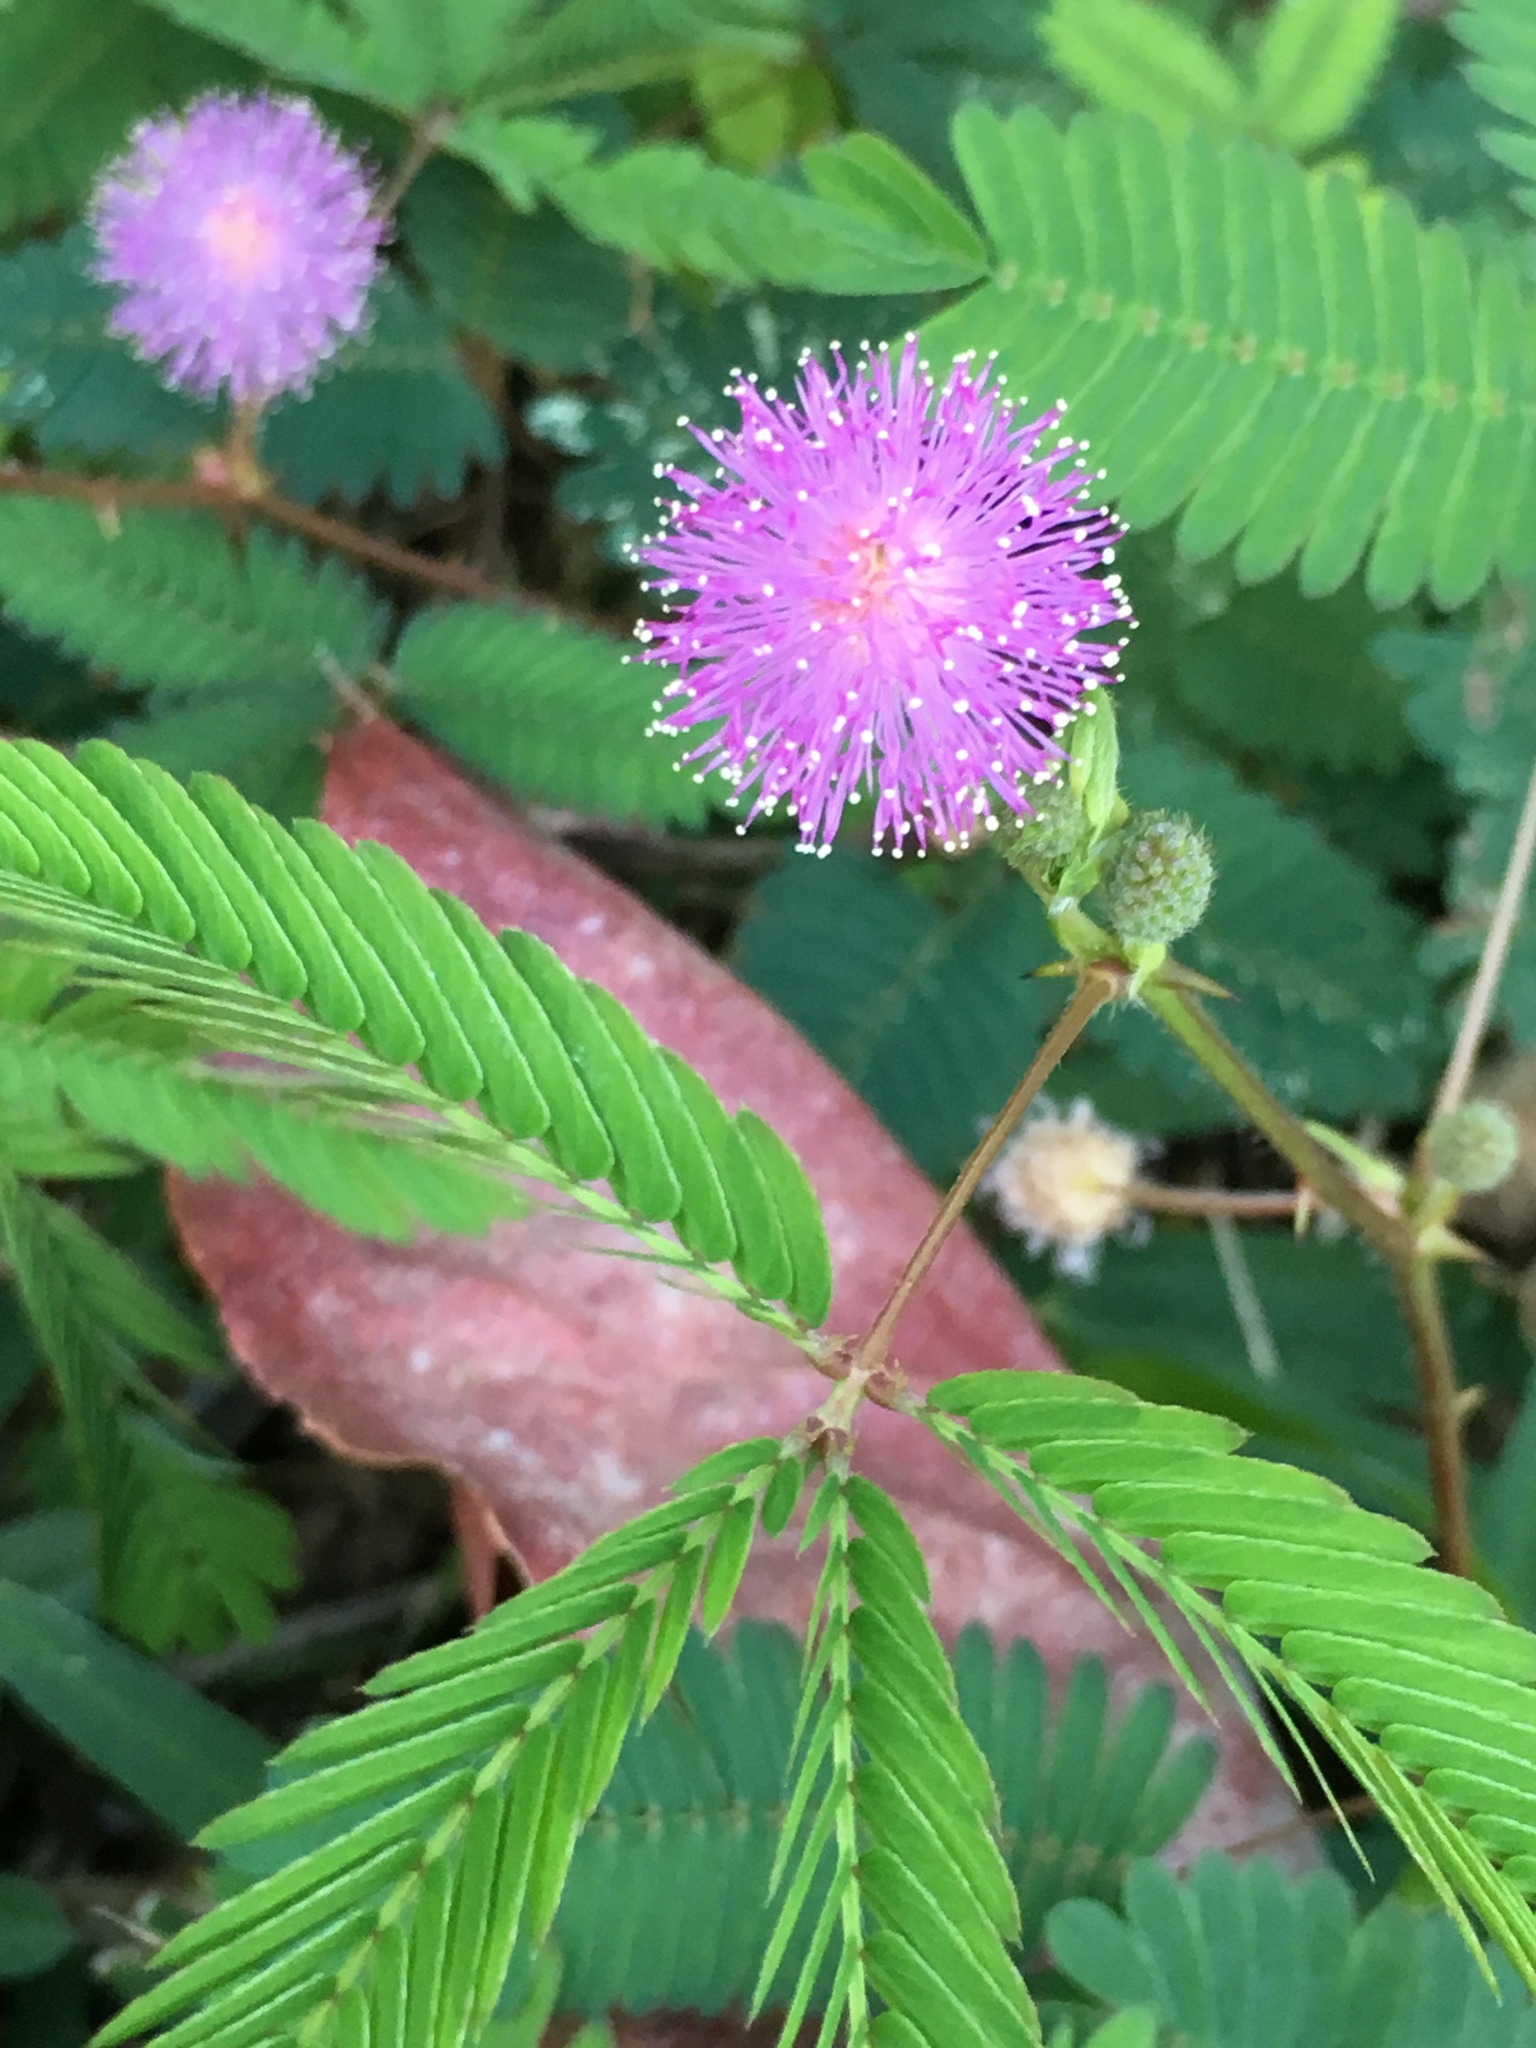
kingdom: Plantae
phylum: Tracheophyta
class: Magnoliopsida
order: Fabales
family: Fabaceae
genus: Mimosa
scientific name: Mimosa pudica
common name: Sensitive plant
